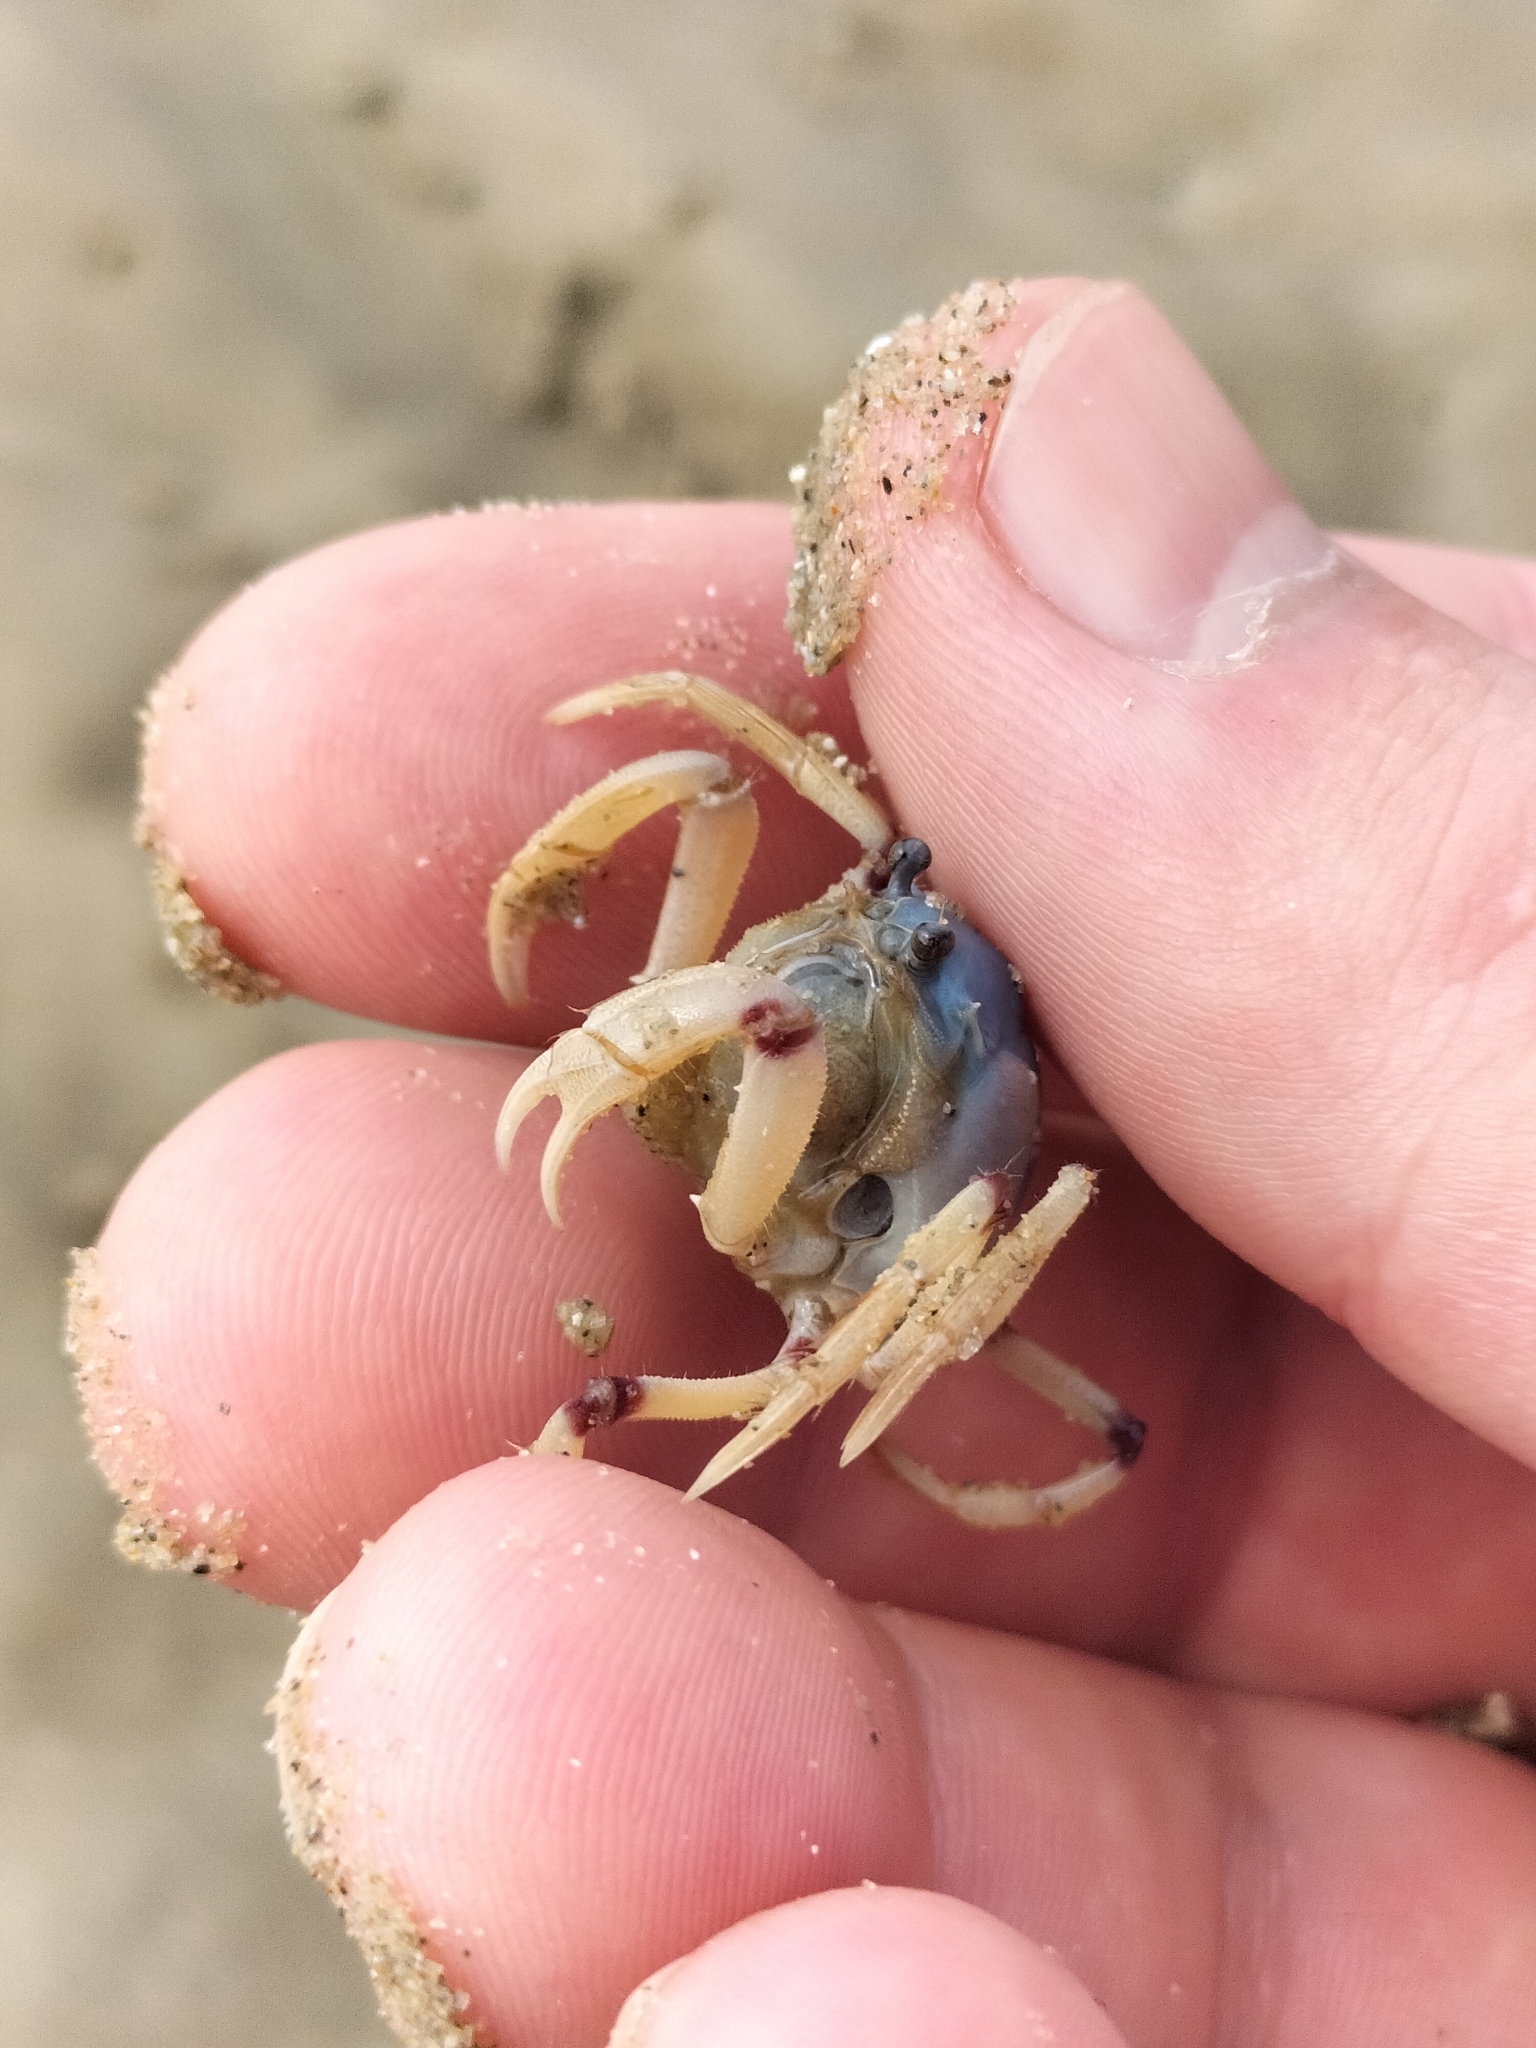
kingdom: Animalia
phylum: Arthropoda
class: Malacostraca
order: Decapoda
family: Mictyridae
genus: Mictyris
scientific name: Mictyris longicarpus
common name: Light-blue soldier crab
